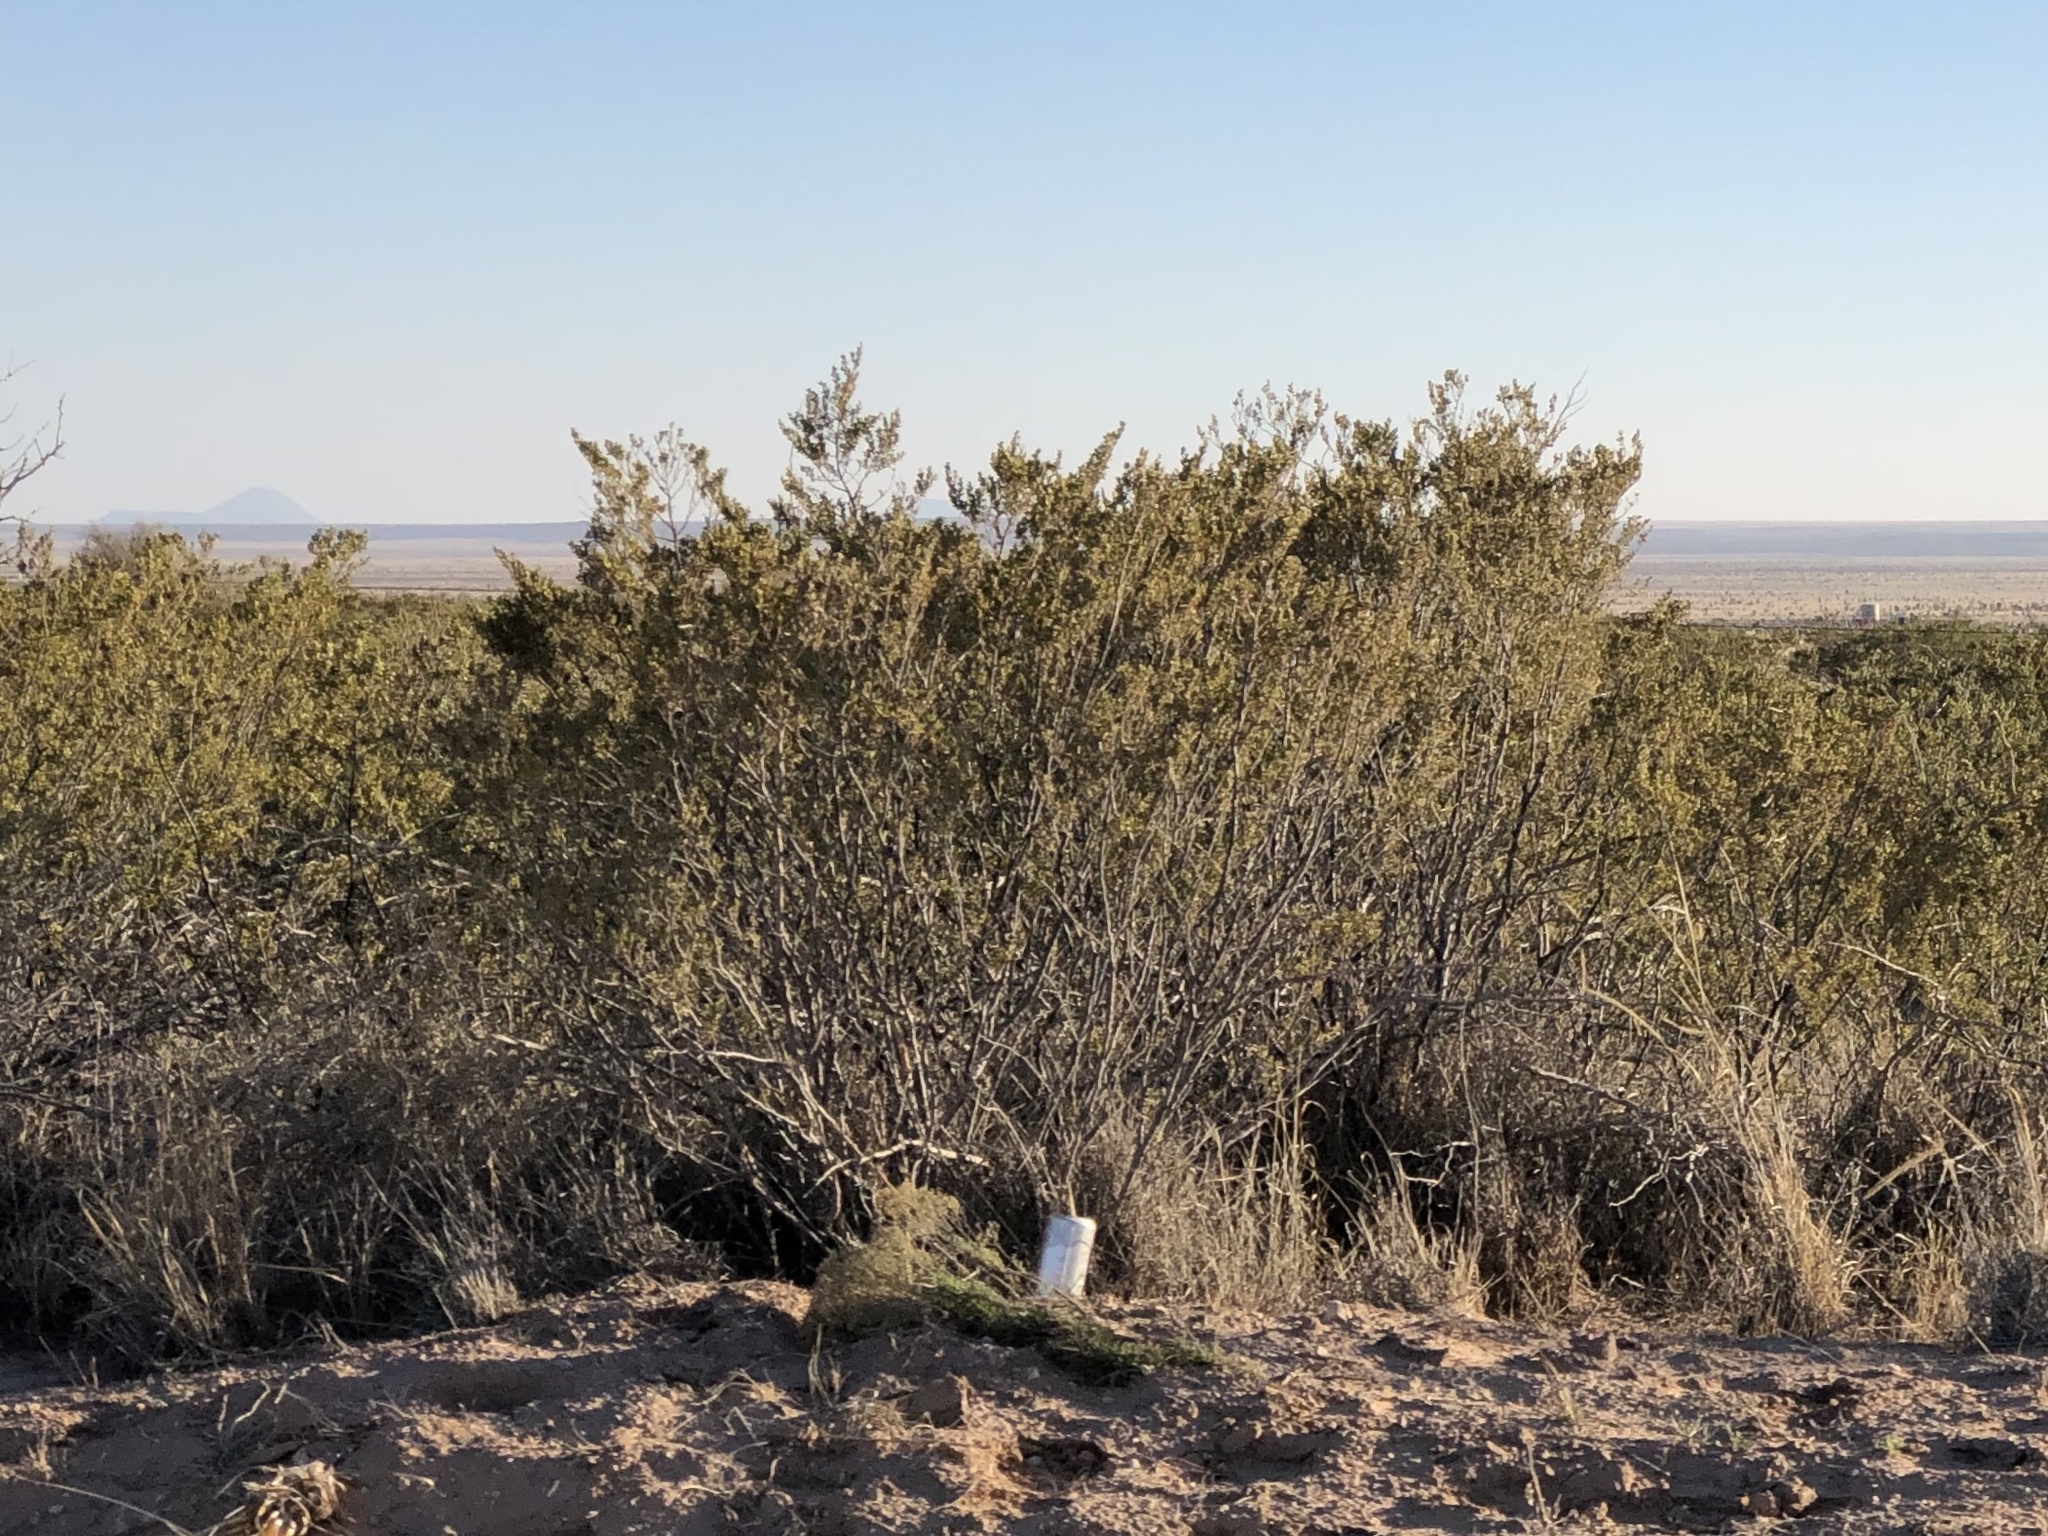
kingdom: Plantae
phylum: Tracheophyta
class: Magnoliopsida
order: Zygophyllales
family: Zygophyllaceae
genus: Larrea
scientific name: Larrea tridentata
